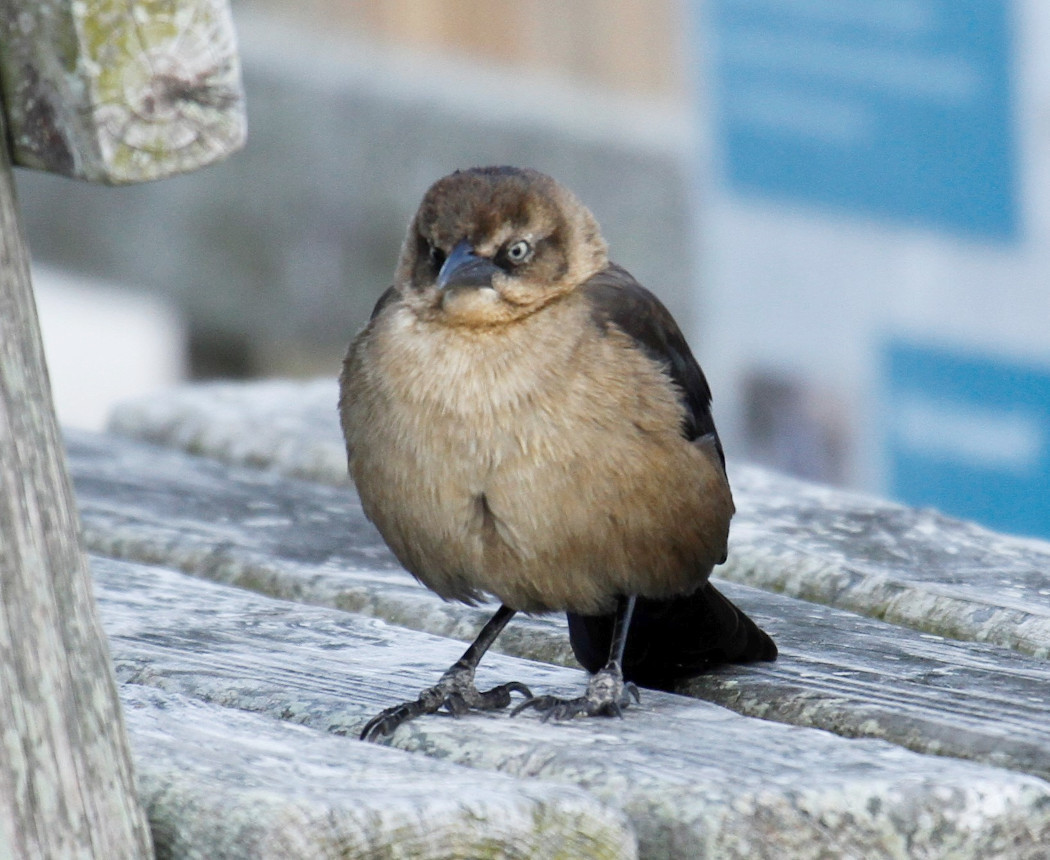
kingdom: Animalia
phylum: Chordata
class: Aves
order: Passeriformes
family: Icteridae
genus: Quiscalus
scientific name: Quiscalus major
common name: Boat-tailed grackle
